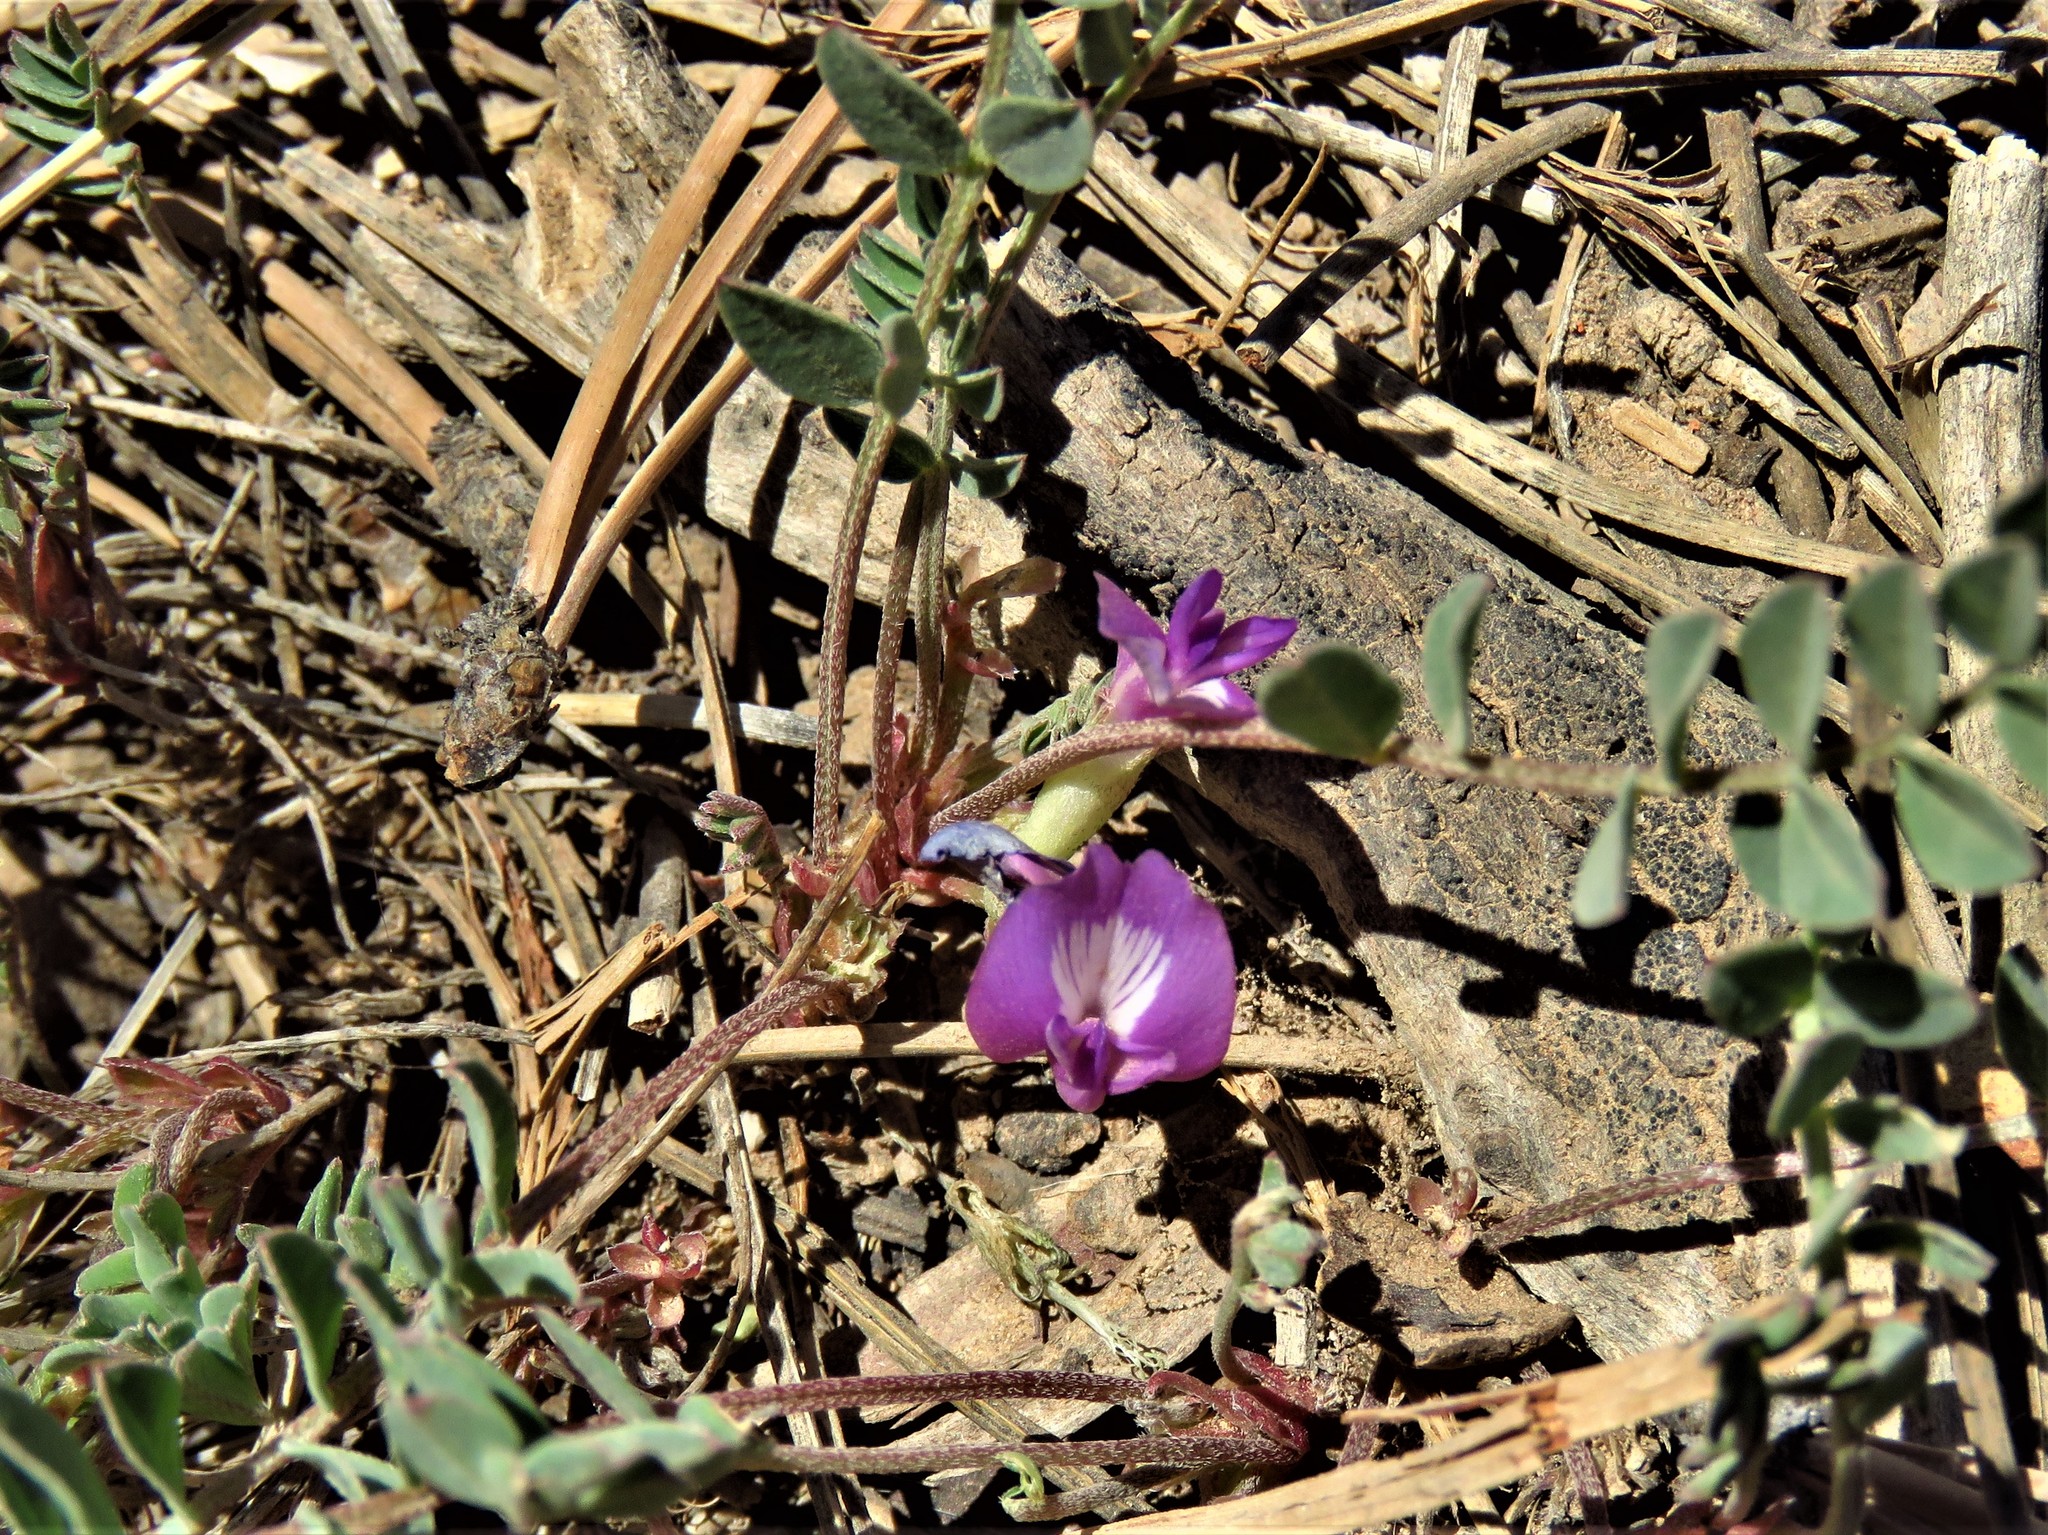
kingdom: Plantae
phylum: Tracheophyta
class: Magnoliopsida
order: Fabales
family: Fabaceae
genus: Astragalus
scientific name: Astragalus megacarpus
